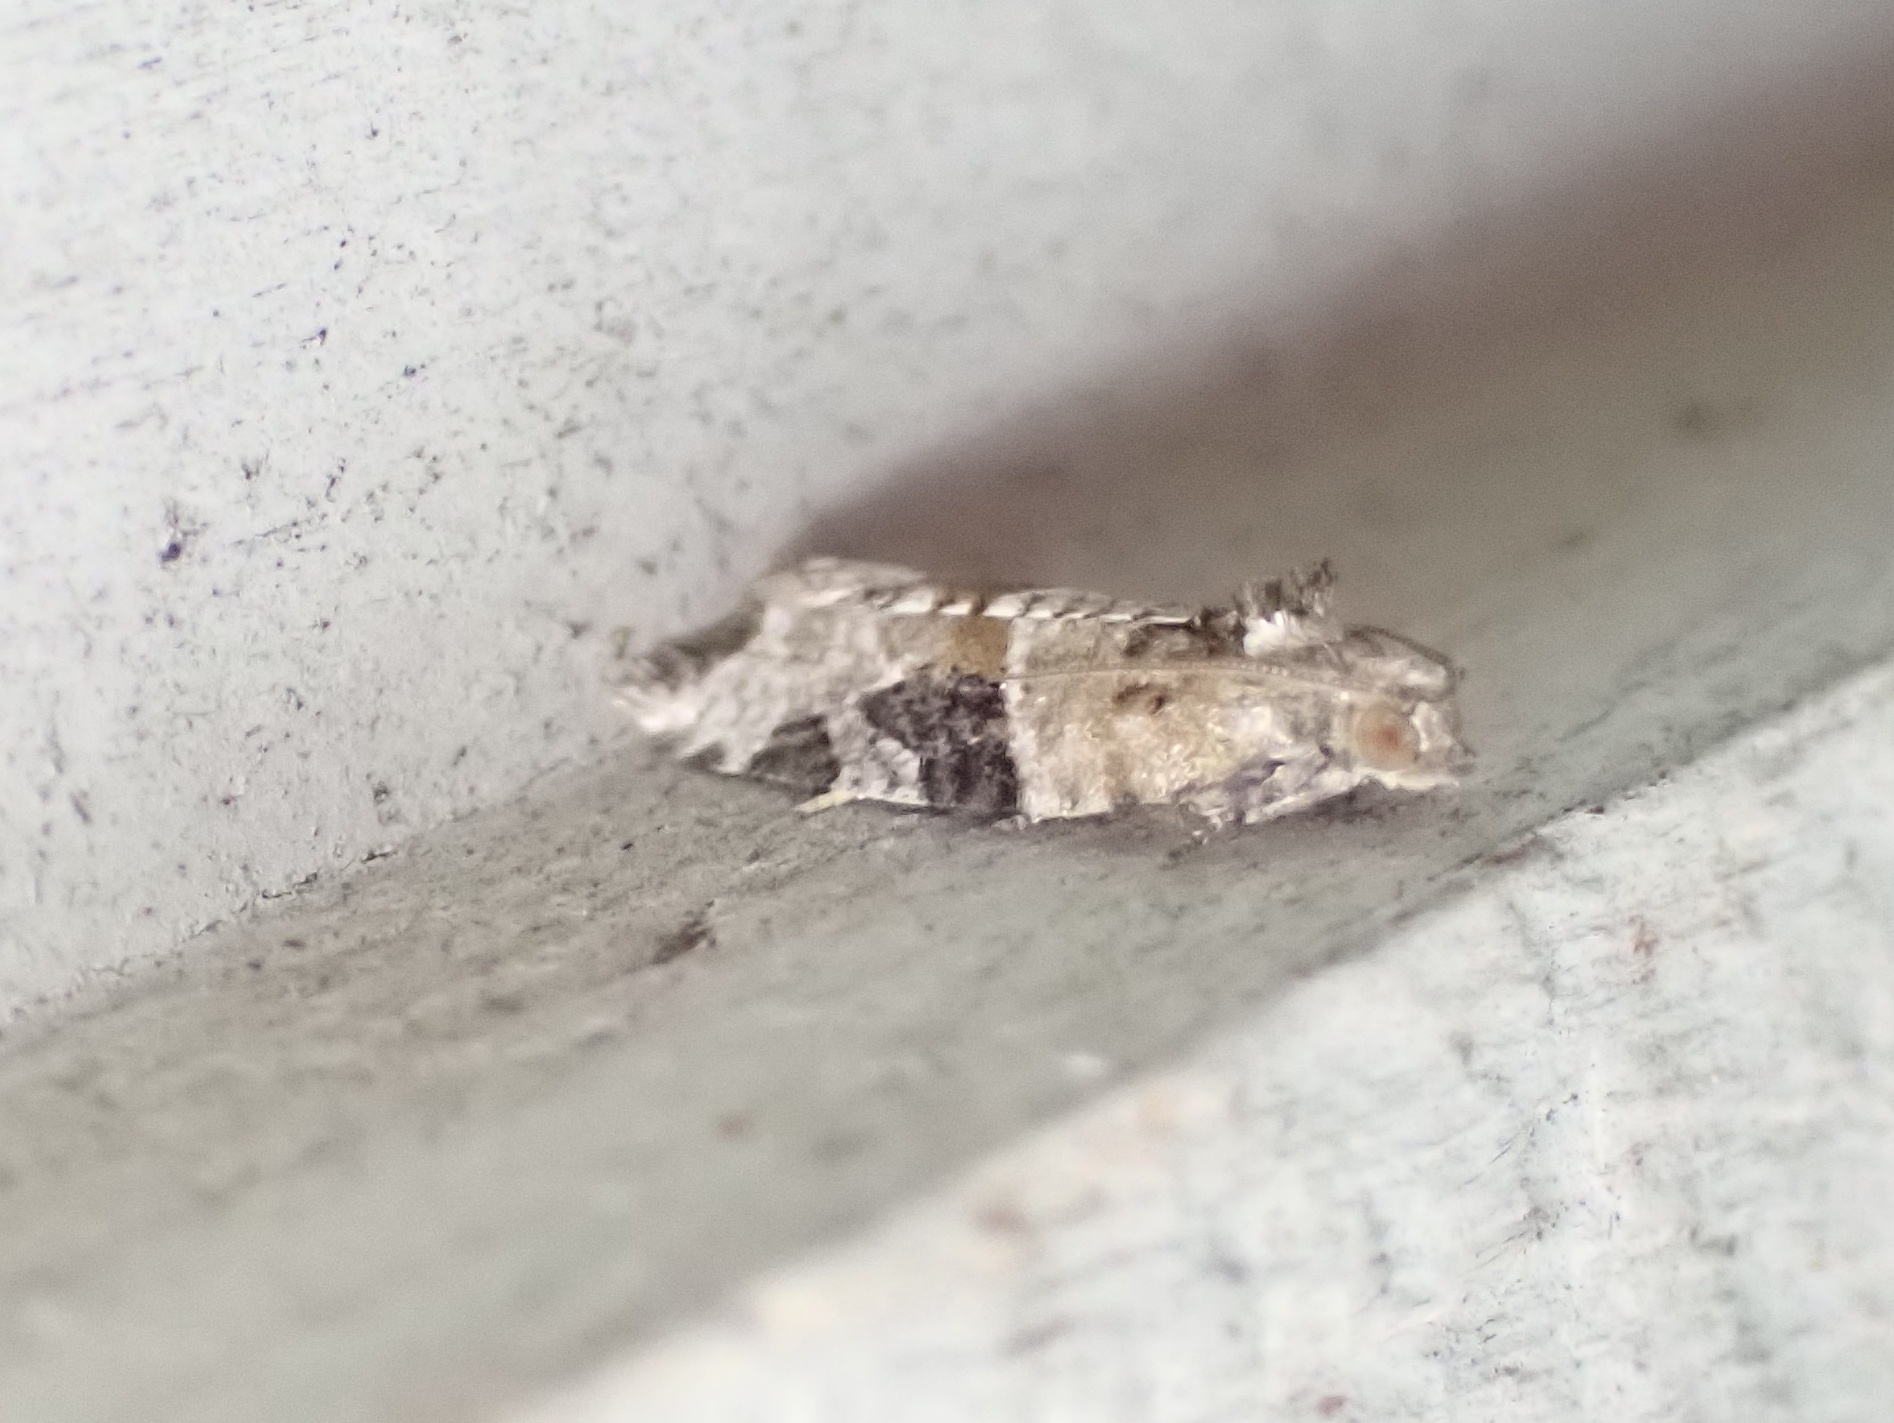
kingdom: Animalia
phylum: Arthropoda
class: Insecta
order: Lepidoptera
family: Tortricidae
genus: Argyrotaenia
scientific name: Argyrotaenia mariana
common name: Gray-banded leafroller moth
